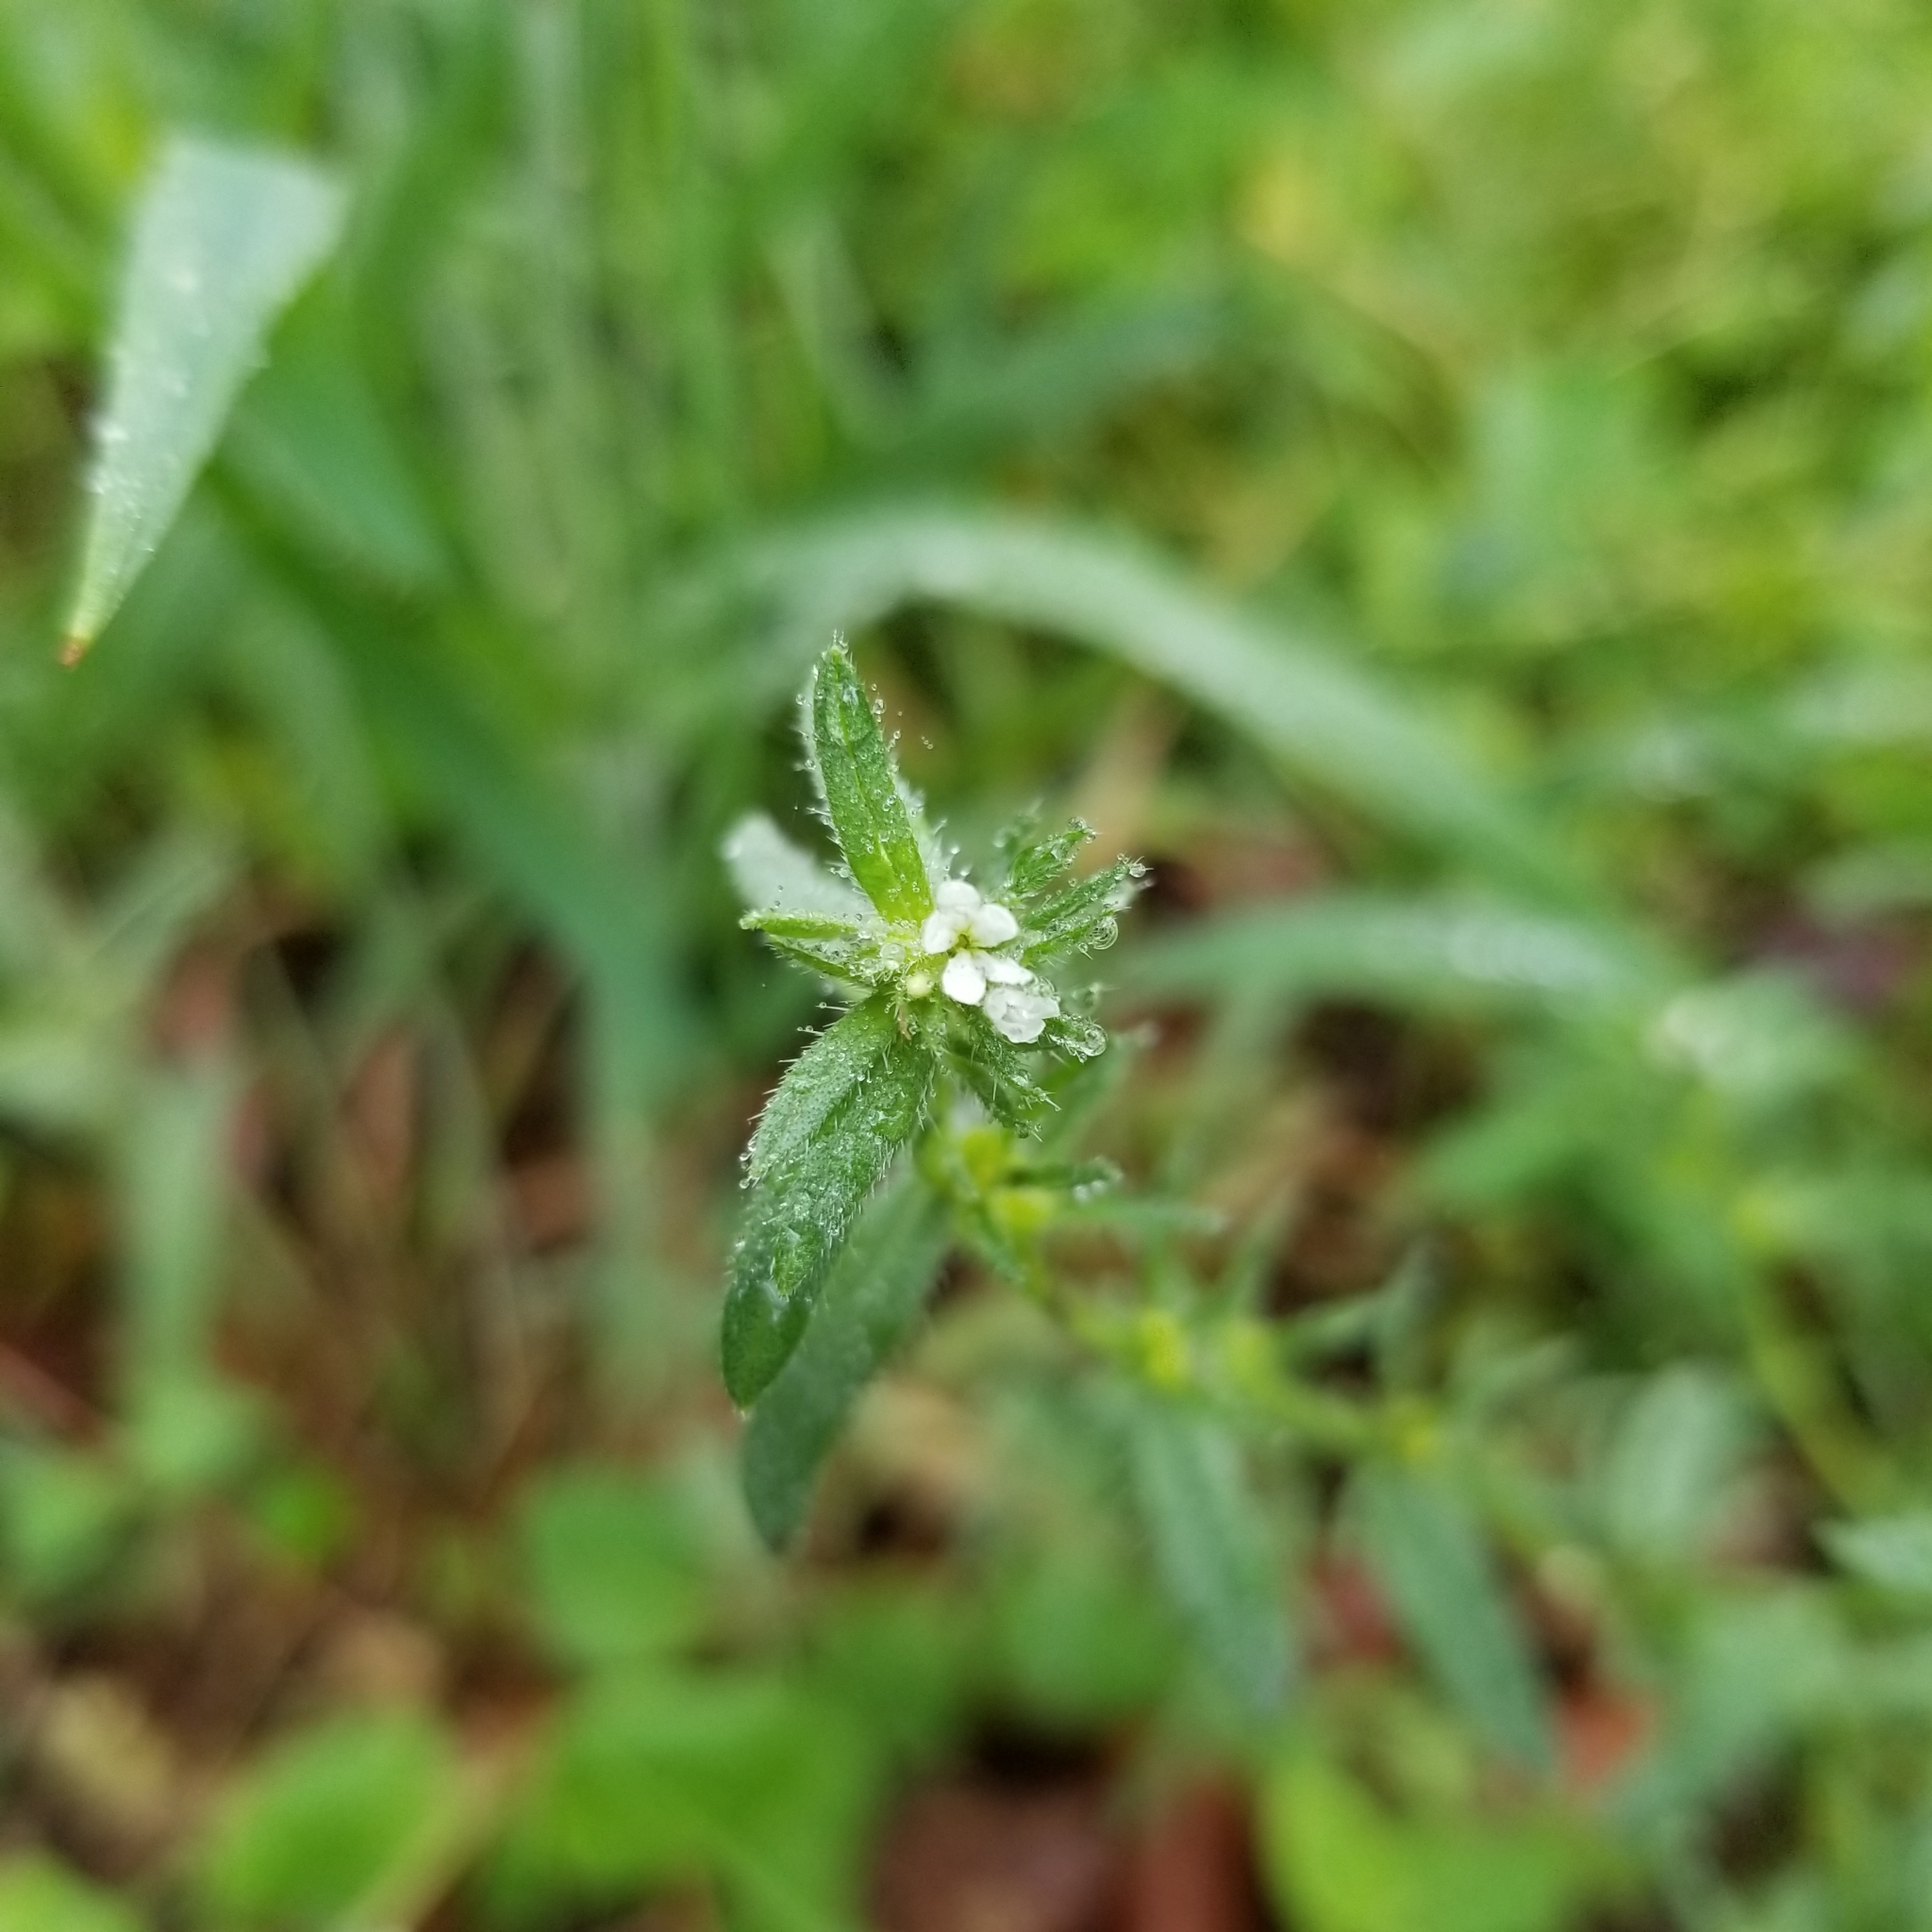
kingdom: Plantae
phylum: Tracheophyta
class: Magnoliopsida
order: Boraginales
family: Boraginaceae
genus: Buglossoides
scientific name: Buglossoides arvensis
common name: Corn gromwell
